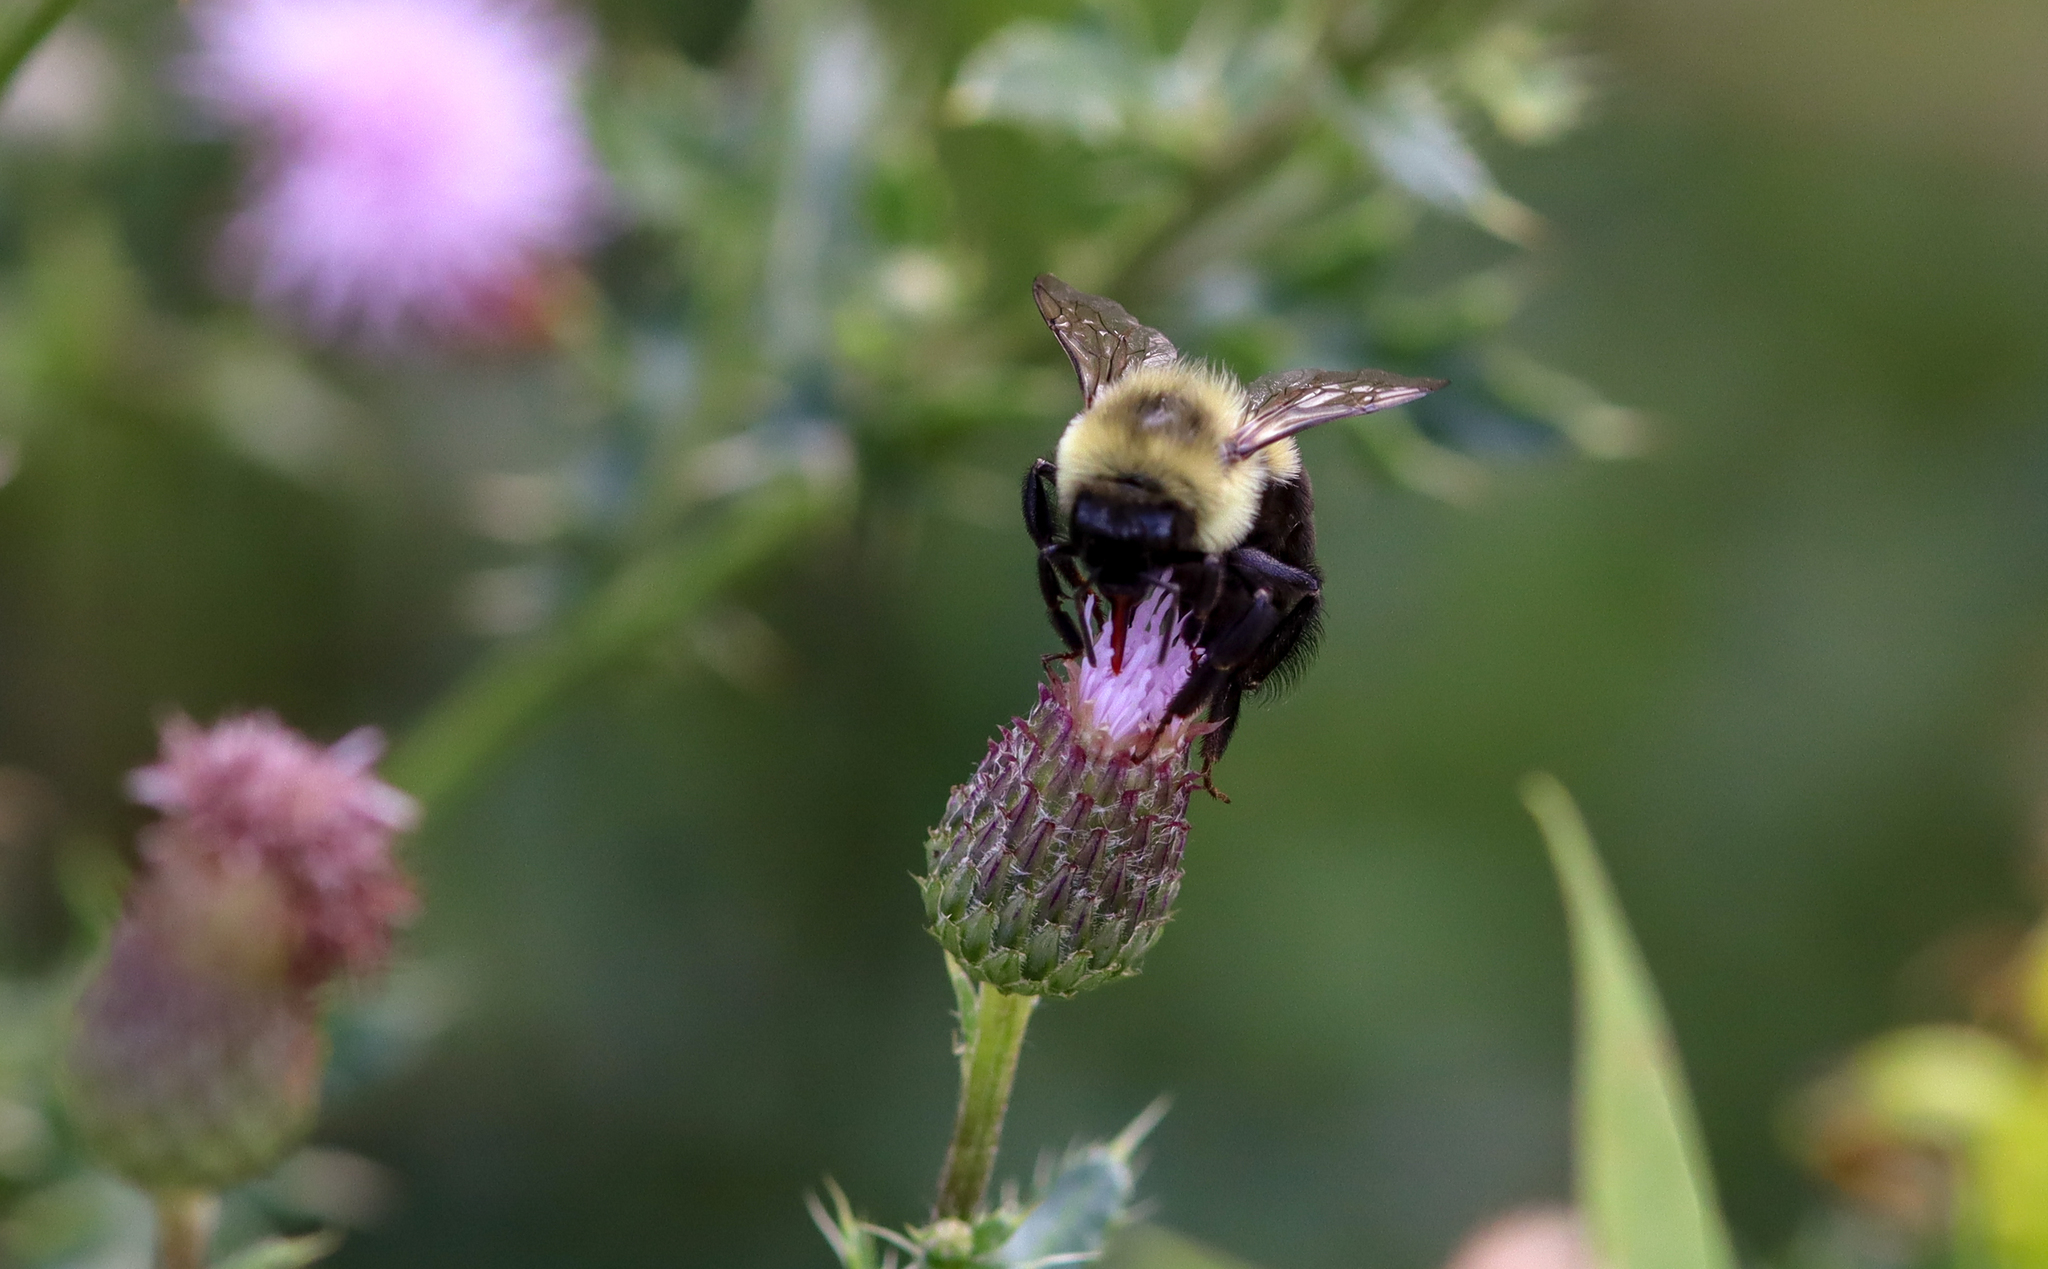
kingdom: Animalia
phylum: Arthropoda
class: Insecta
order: Hymenoptera
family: Apidae
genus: Bombus
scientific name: Bombus impatiens
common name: Common eastern bumble bee
